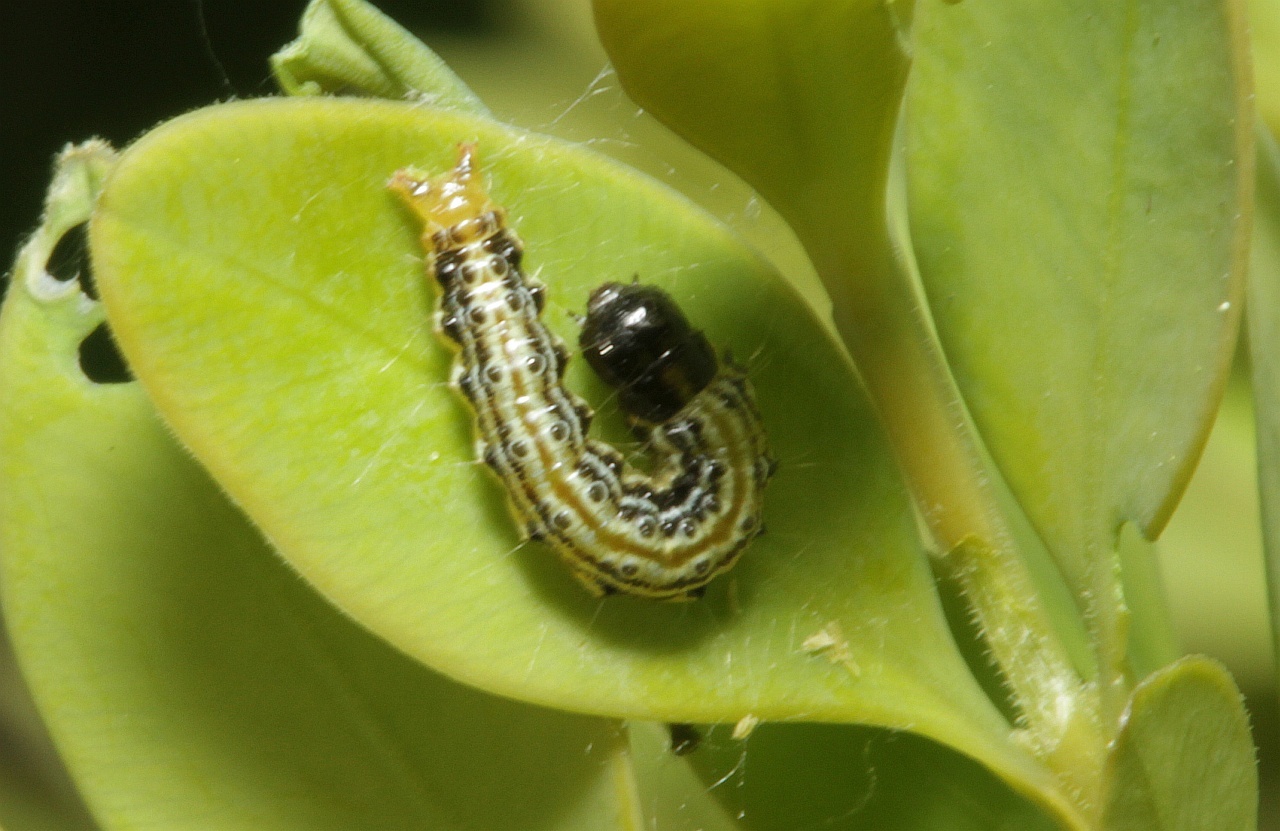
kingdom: Animalia
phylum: Arthropoda
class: Insecta
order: Lepidoptera
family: Crambidae
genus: Cydalima
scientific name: Cydalima perspectalis
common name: Box tree moth
